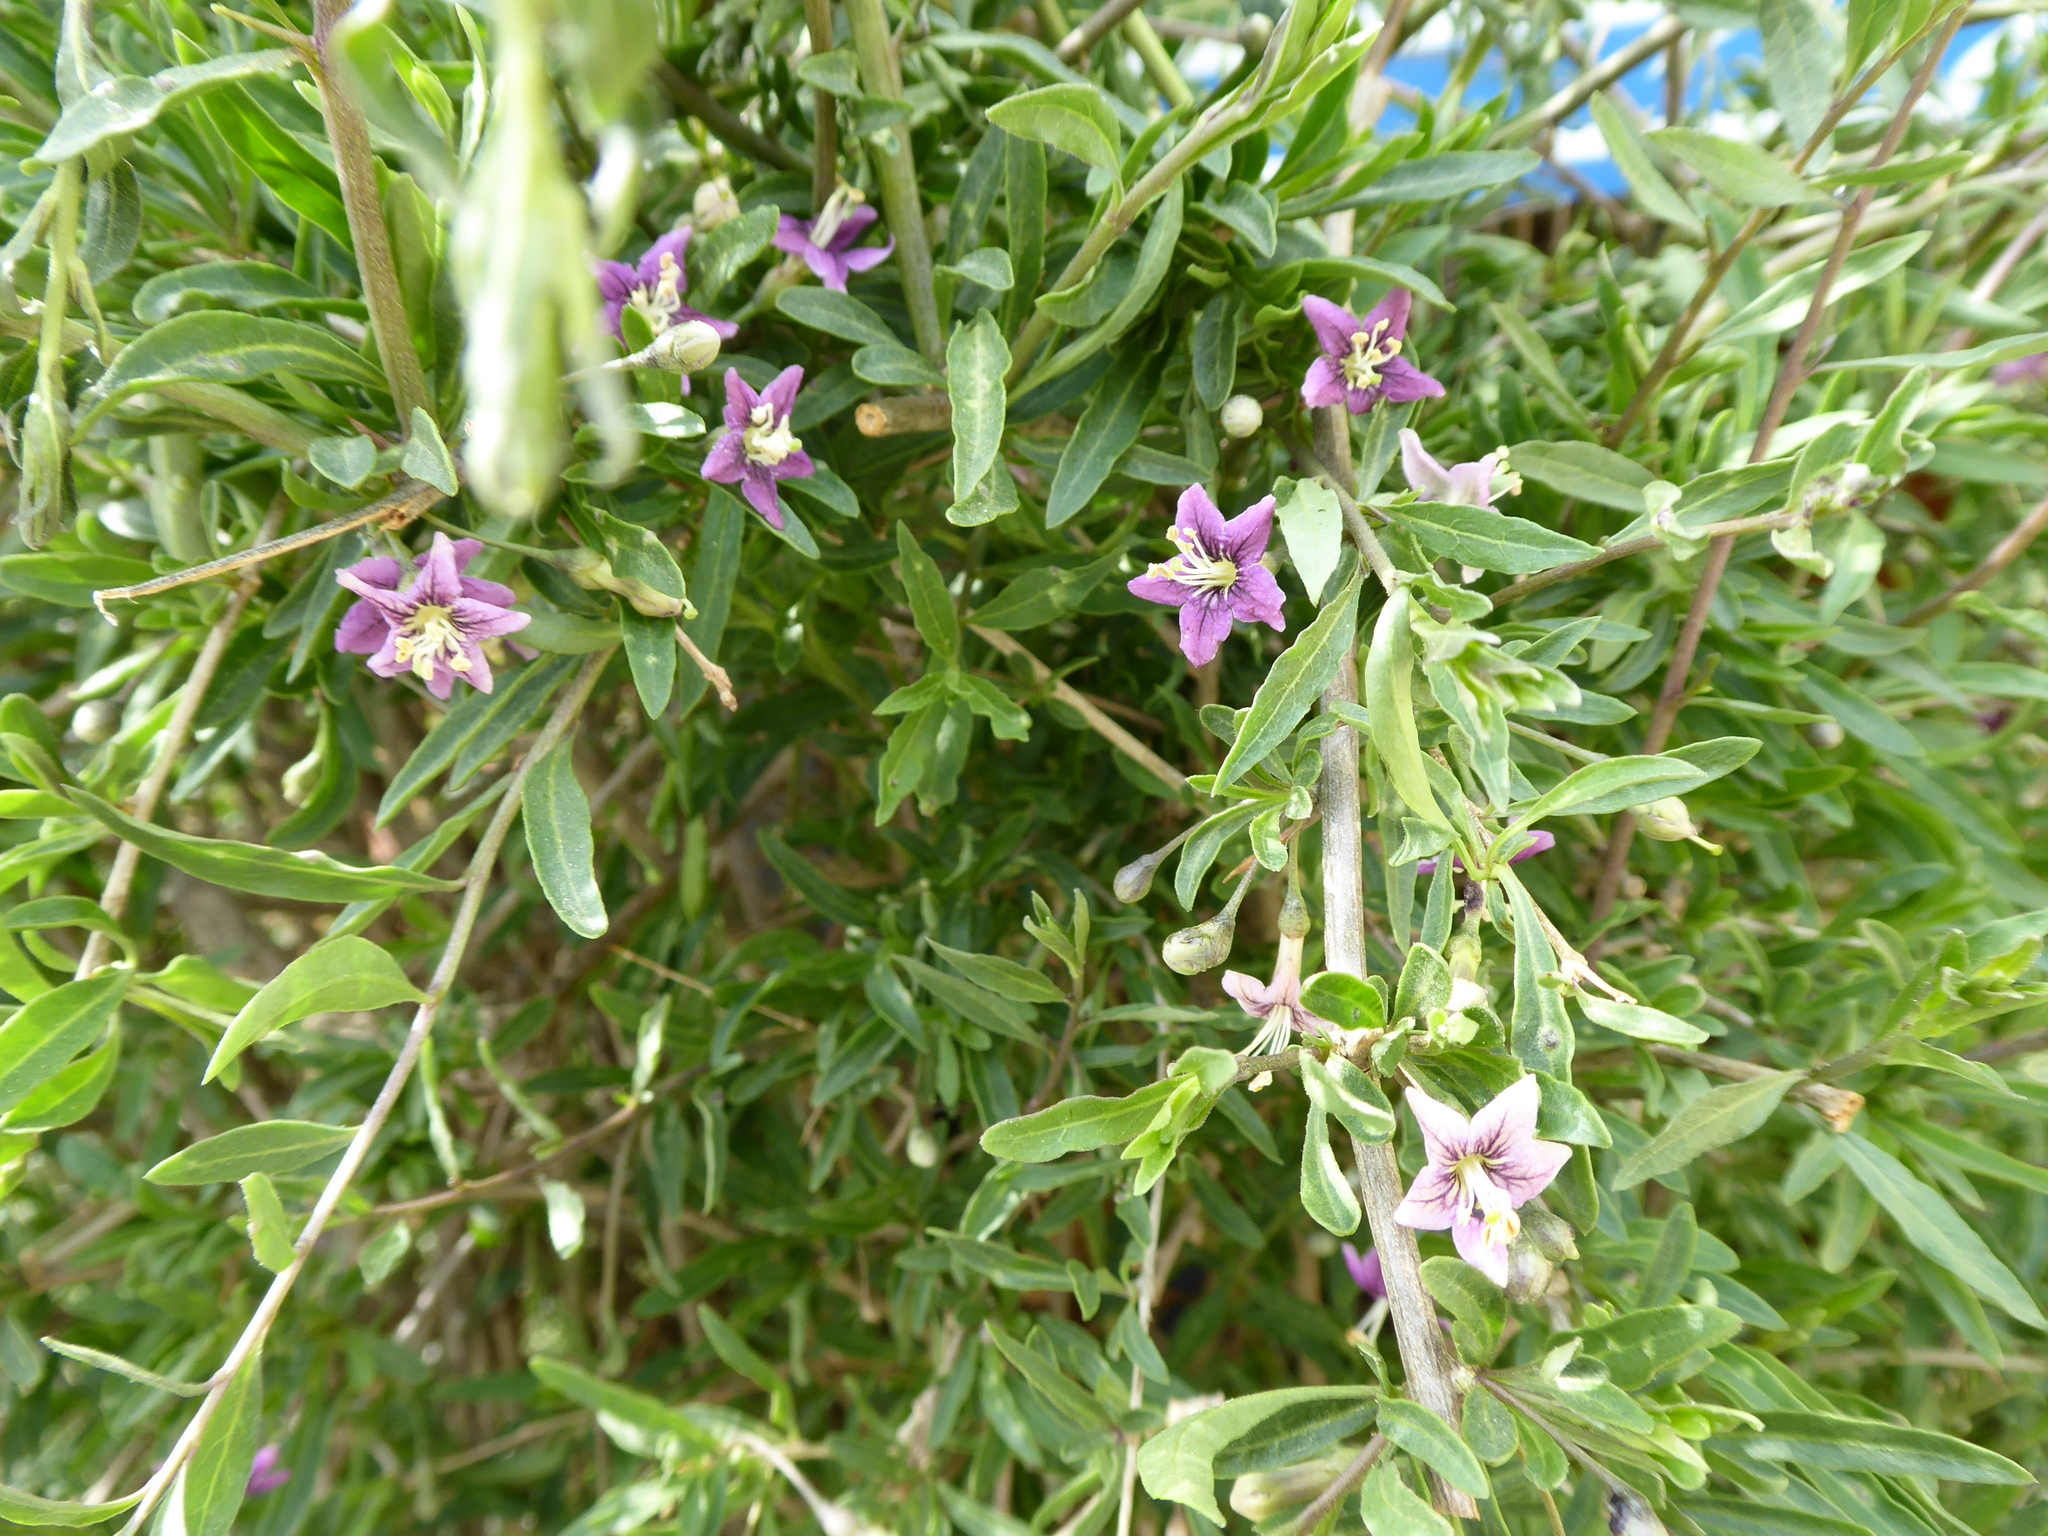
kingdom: Plantae
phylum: Tracheophyta
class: Magnoliopsida
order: Solanales
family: Solanaceae
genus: Lycium
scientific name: Lycium barbarum
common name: Duke of argyll's teaplant
